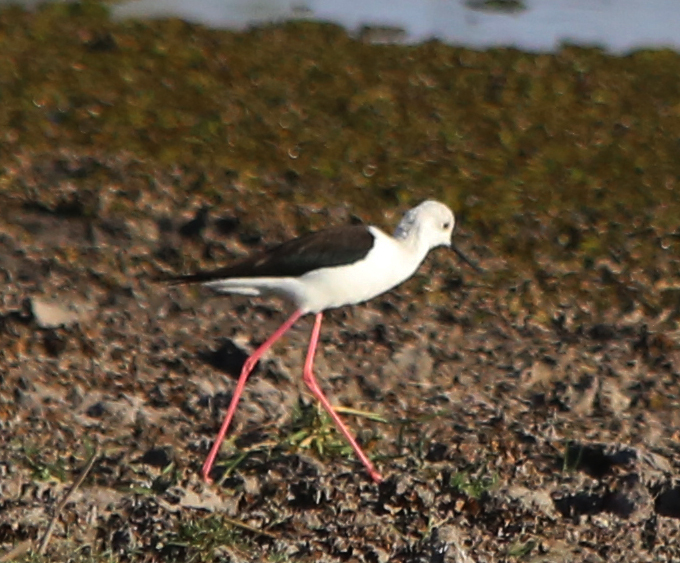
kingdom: Animalia
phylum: Chordata
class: Aves
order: Charadriiformes
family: Recurvirostridae
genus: Himantopus
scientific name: Himantopus himantopus
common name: Black-winged stilt
